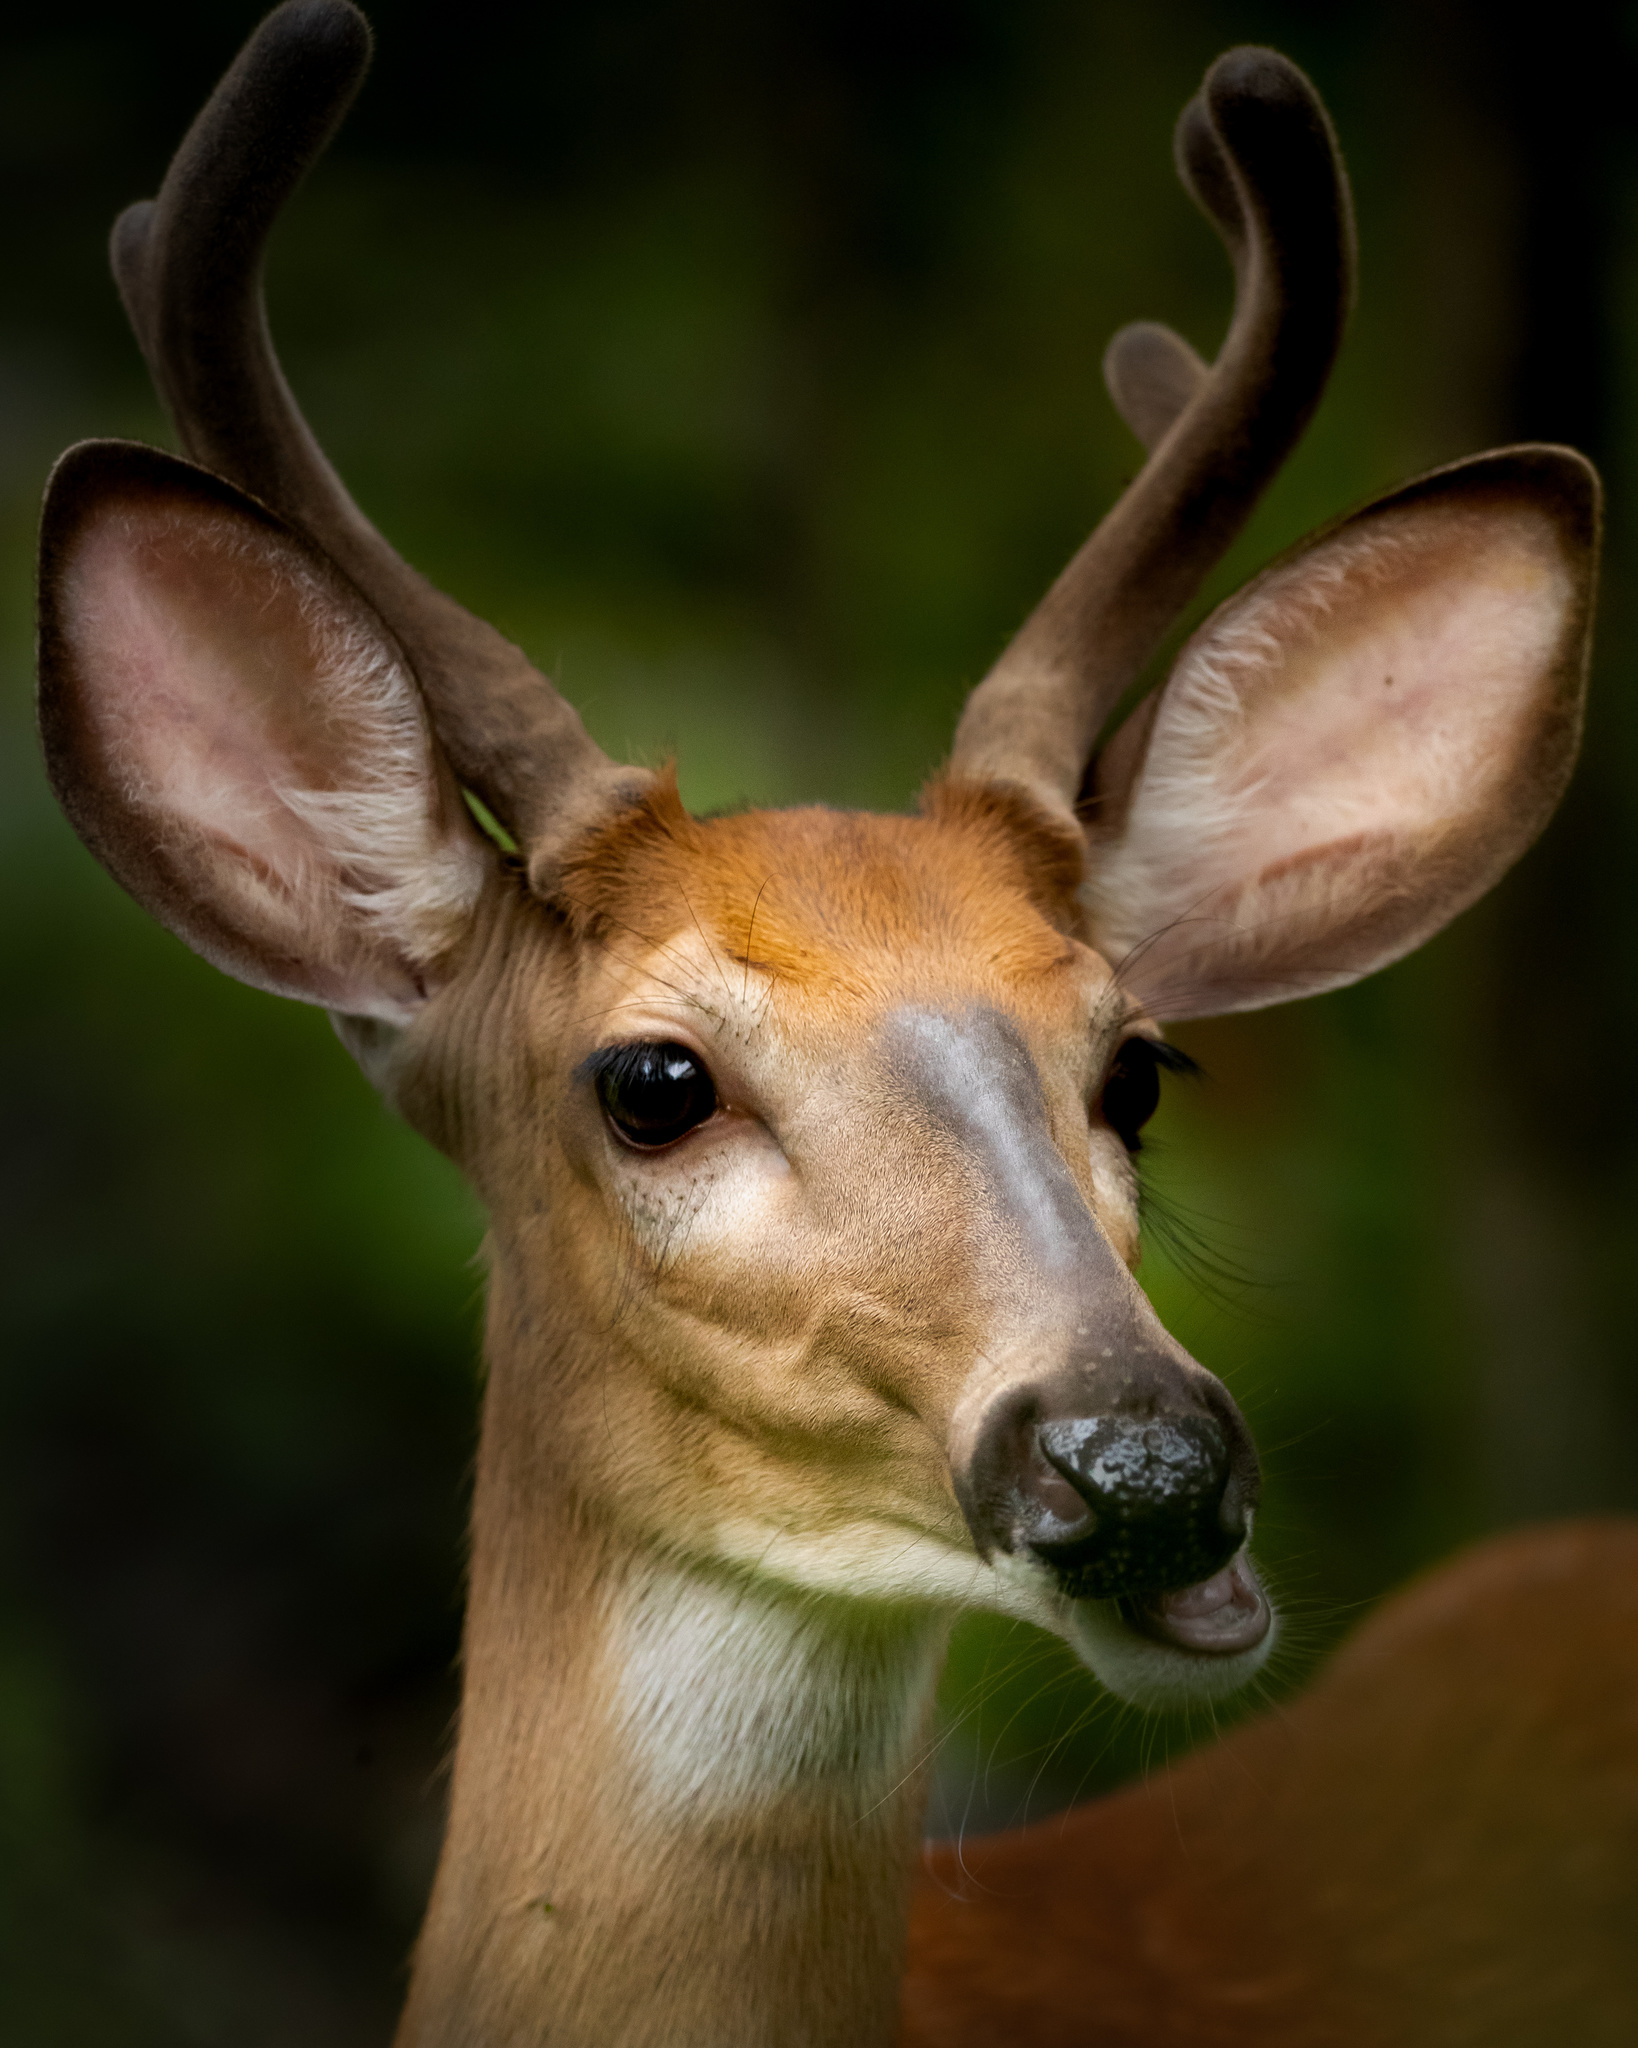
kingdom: Animalia
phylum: Chordata
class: Mammalia
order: Artiodactyla
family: Cervidae
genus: Odocoileus
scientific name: Odocoileus virginianus
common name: White-tailed deer
